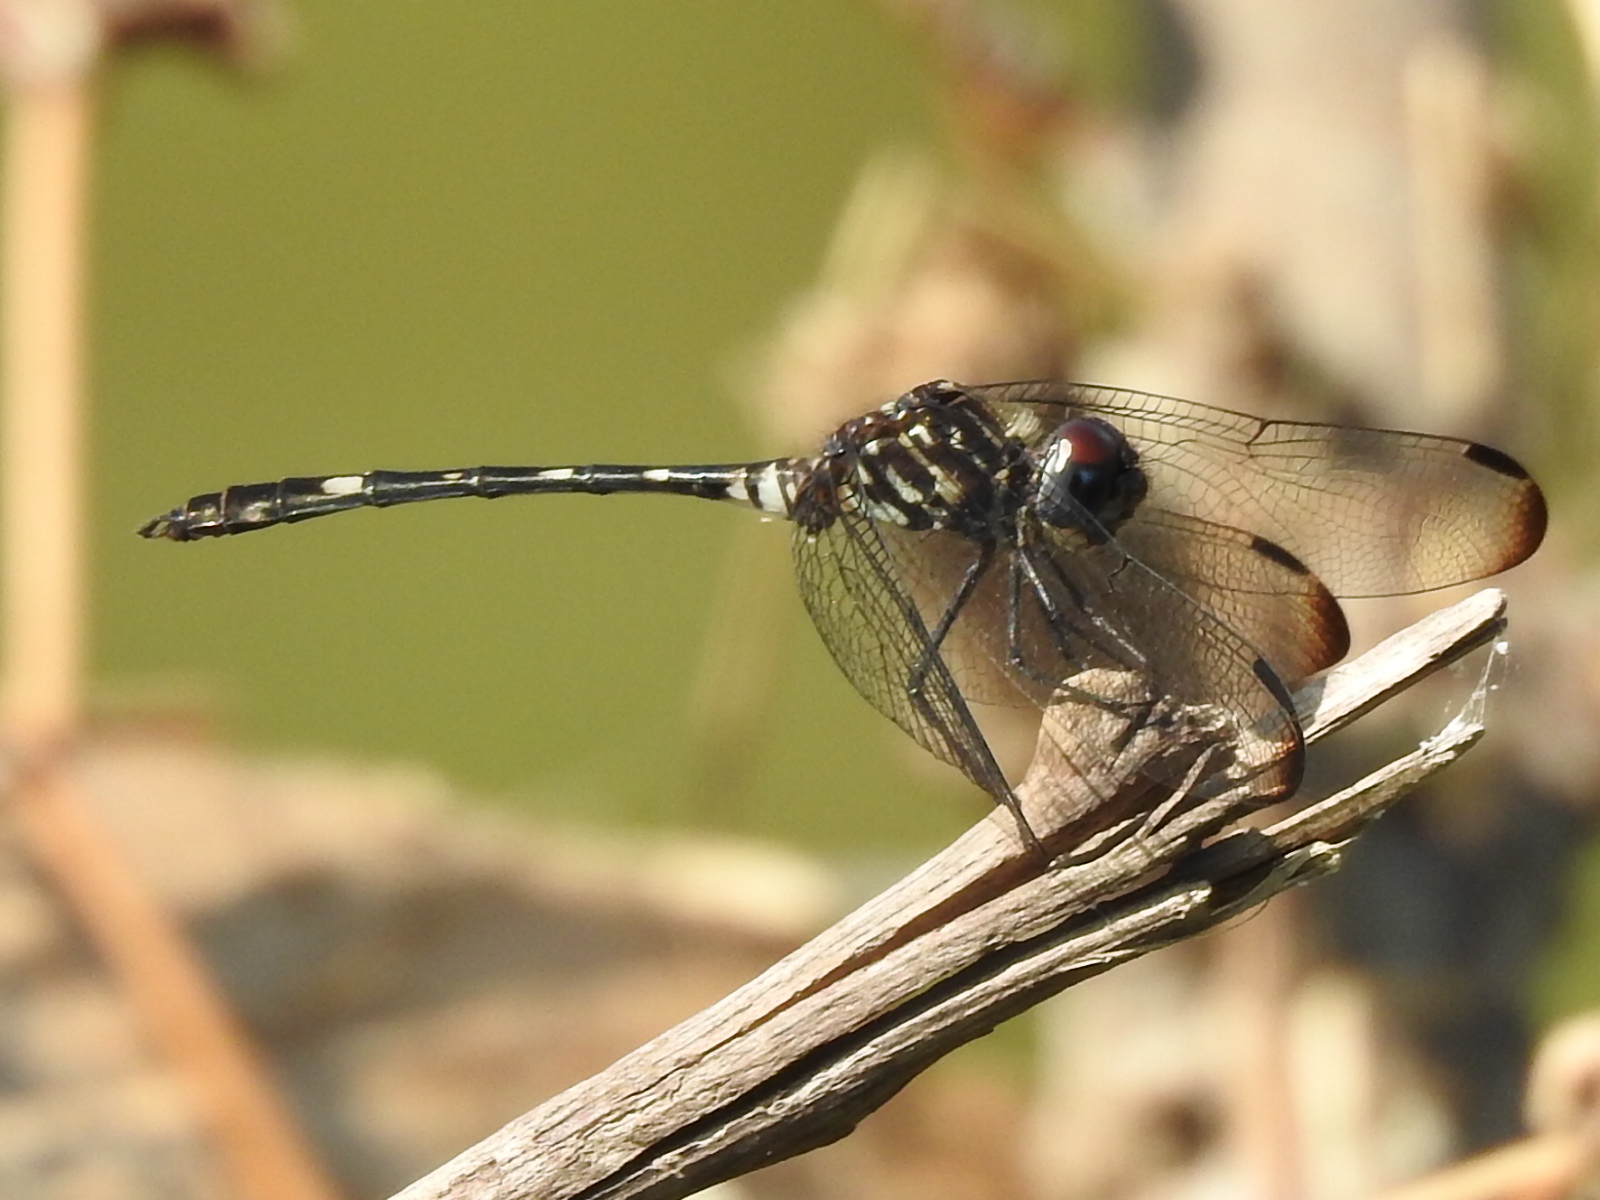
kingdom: Animalia
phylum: Arthropoda
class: Insecta
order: Odonata
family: Libellulidae
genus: Dythemis
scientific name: Dythemis velox
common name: Swift setwing
